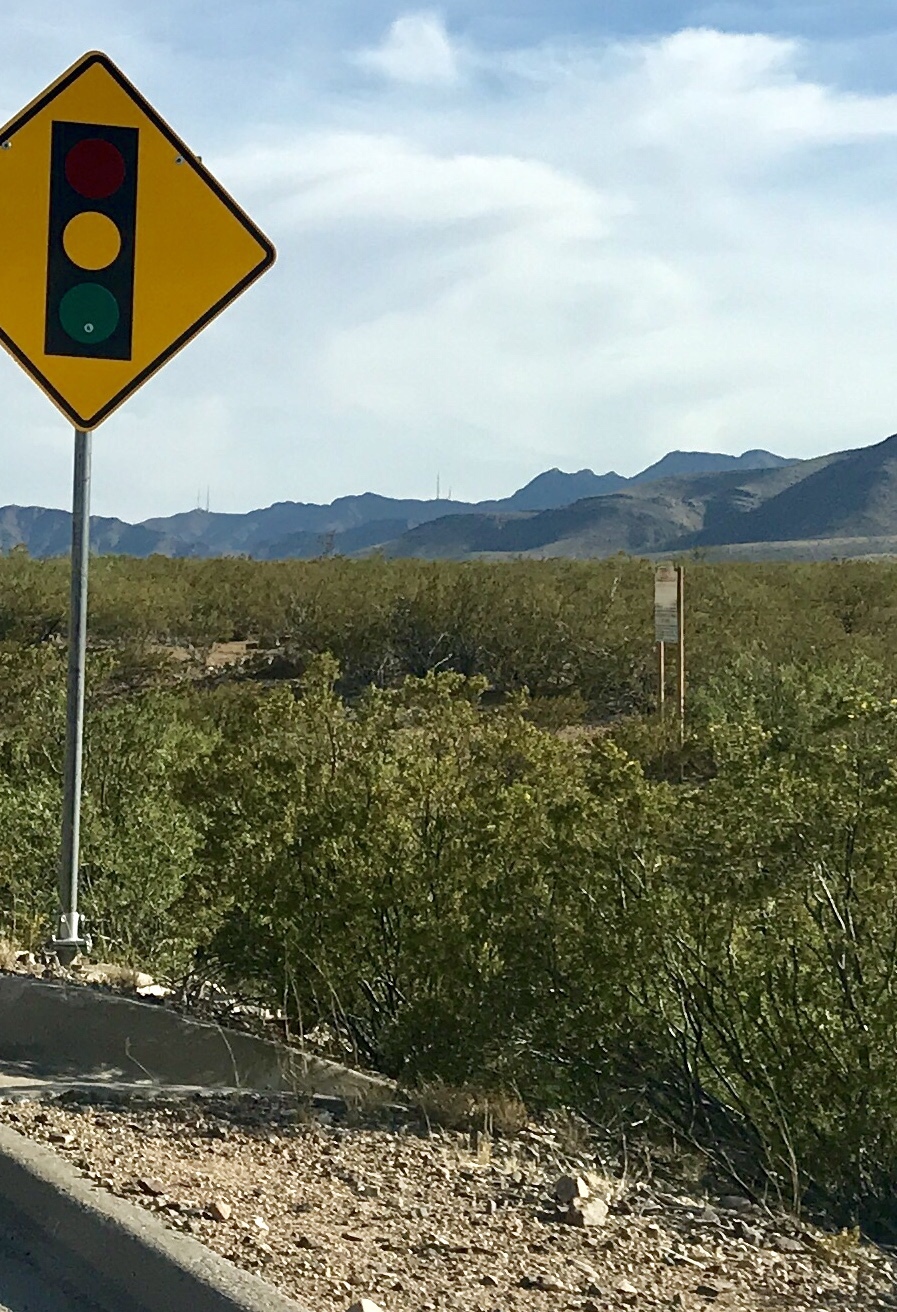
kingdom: Plantae
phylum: Tracheophyta
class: Magnoliopsida
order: Zygophyllales
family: Zygophyllaceae
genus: Larrea
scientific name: Larrea tridentata
